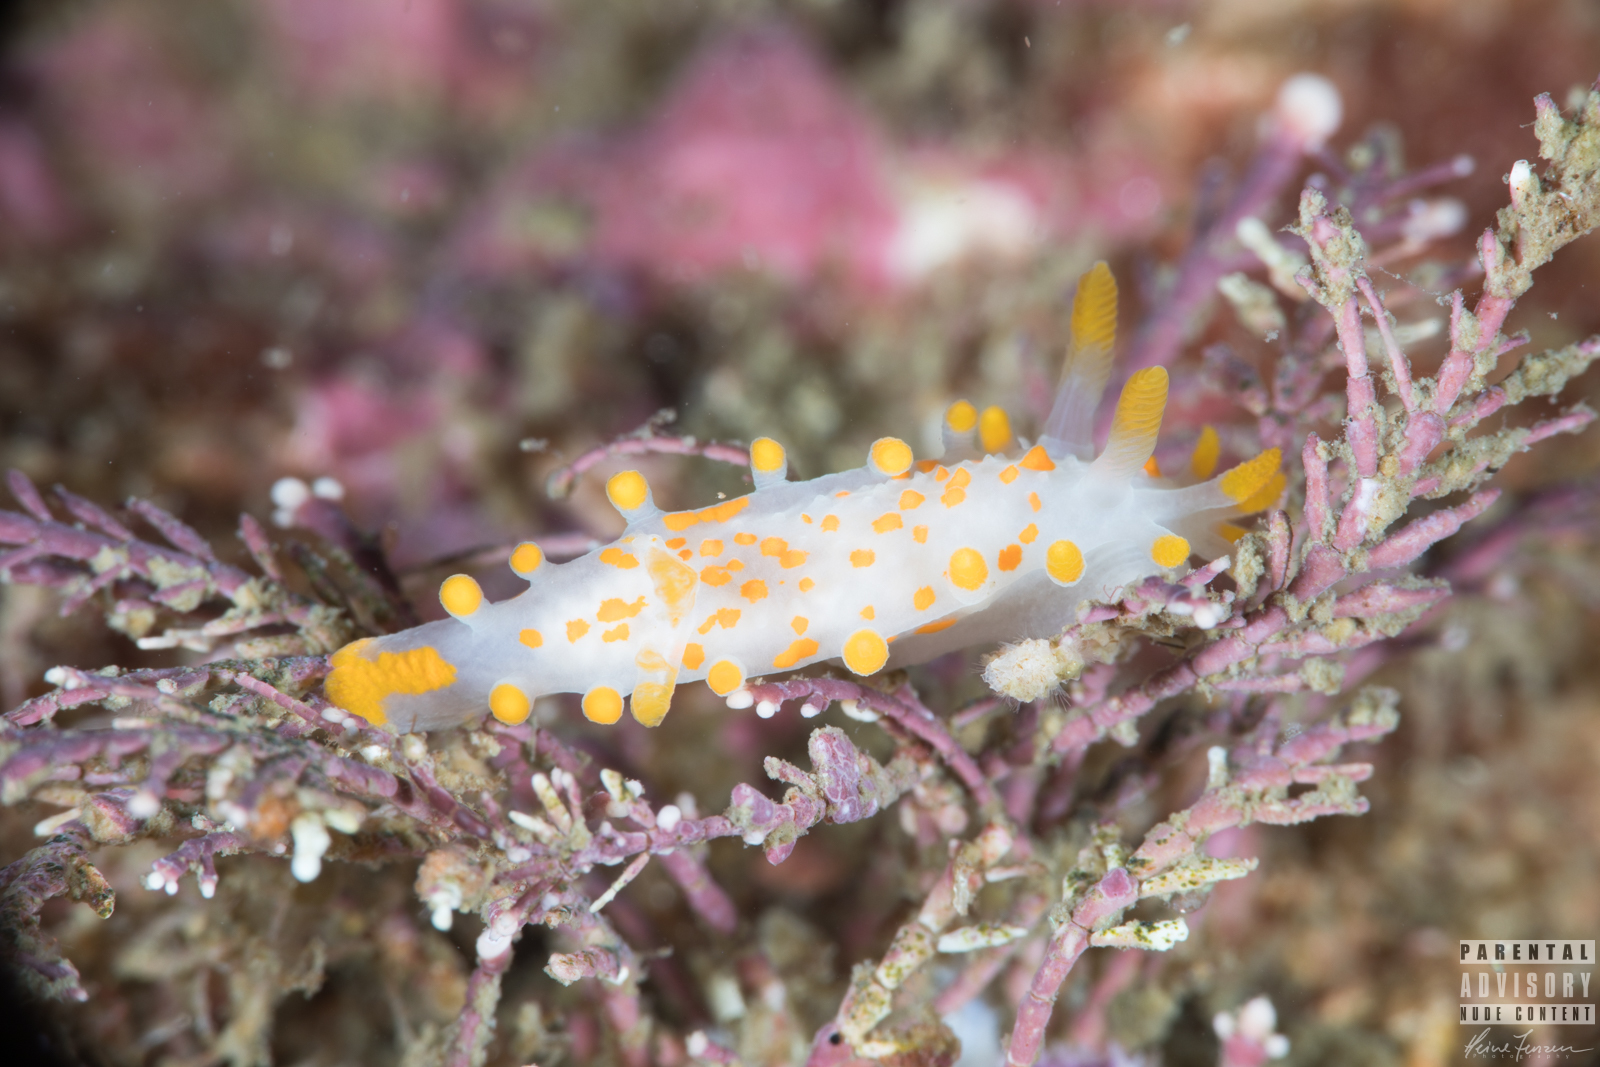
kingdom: Animalia
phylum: Mollusca
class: Gastropoda
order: Nudibranchia
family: Polyceridae
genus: Limacia
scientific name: Limacia clavigera
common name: Orange-clubbed sea slug
